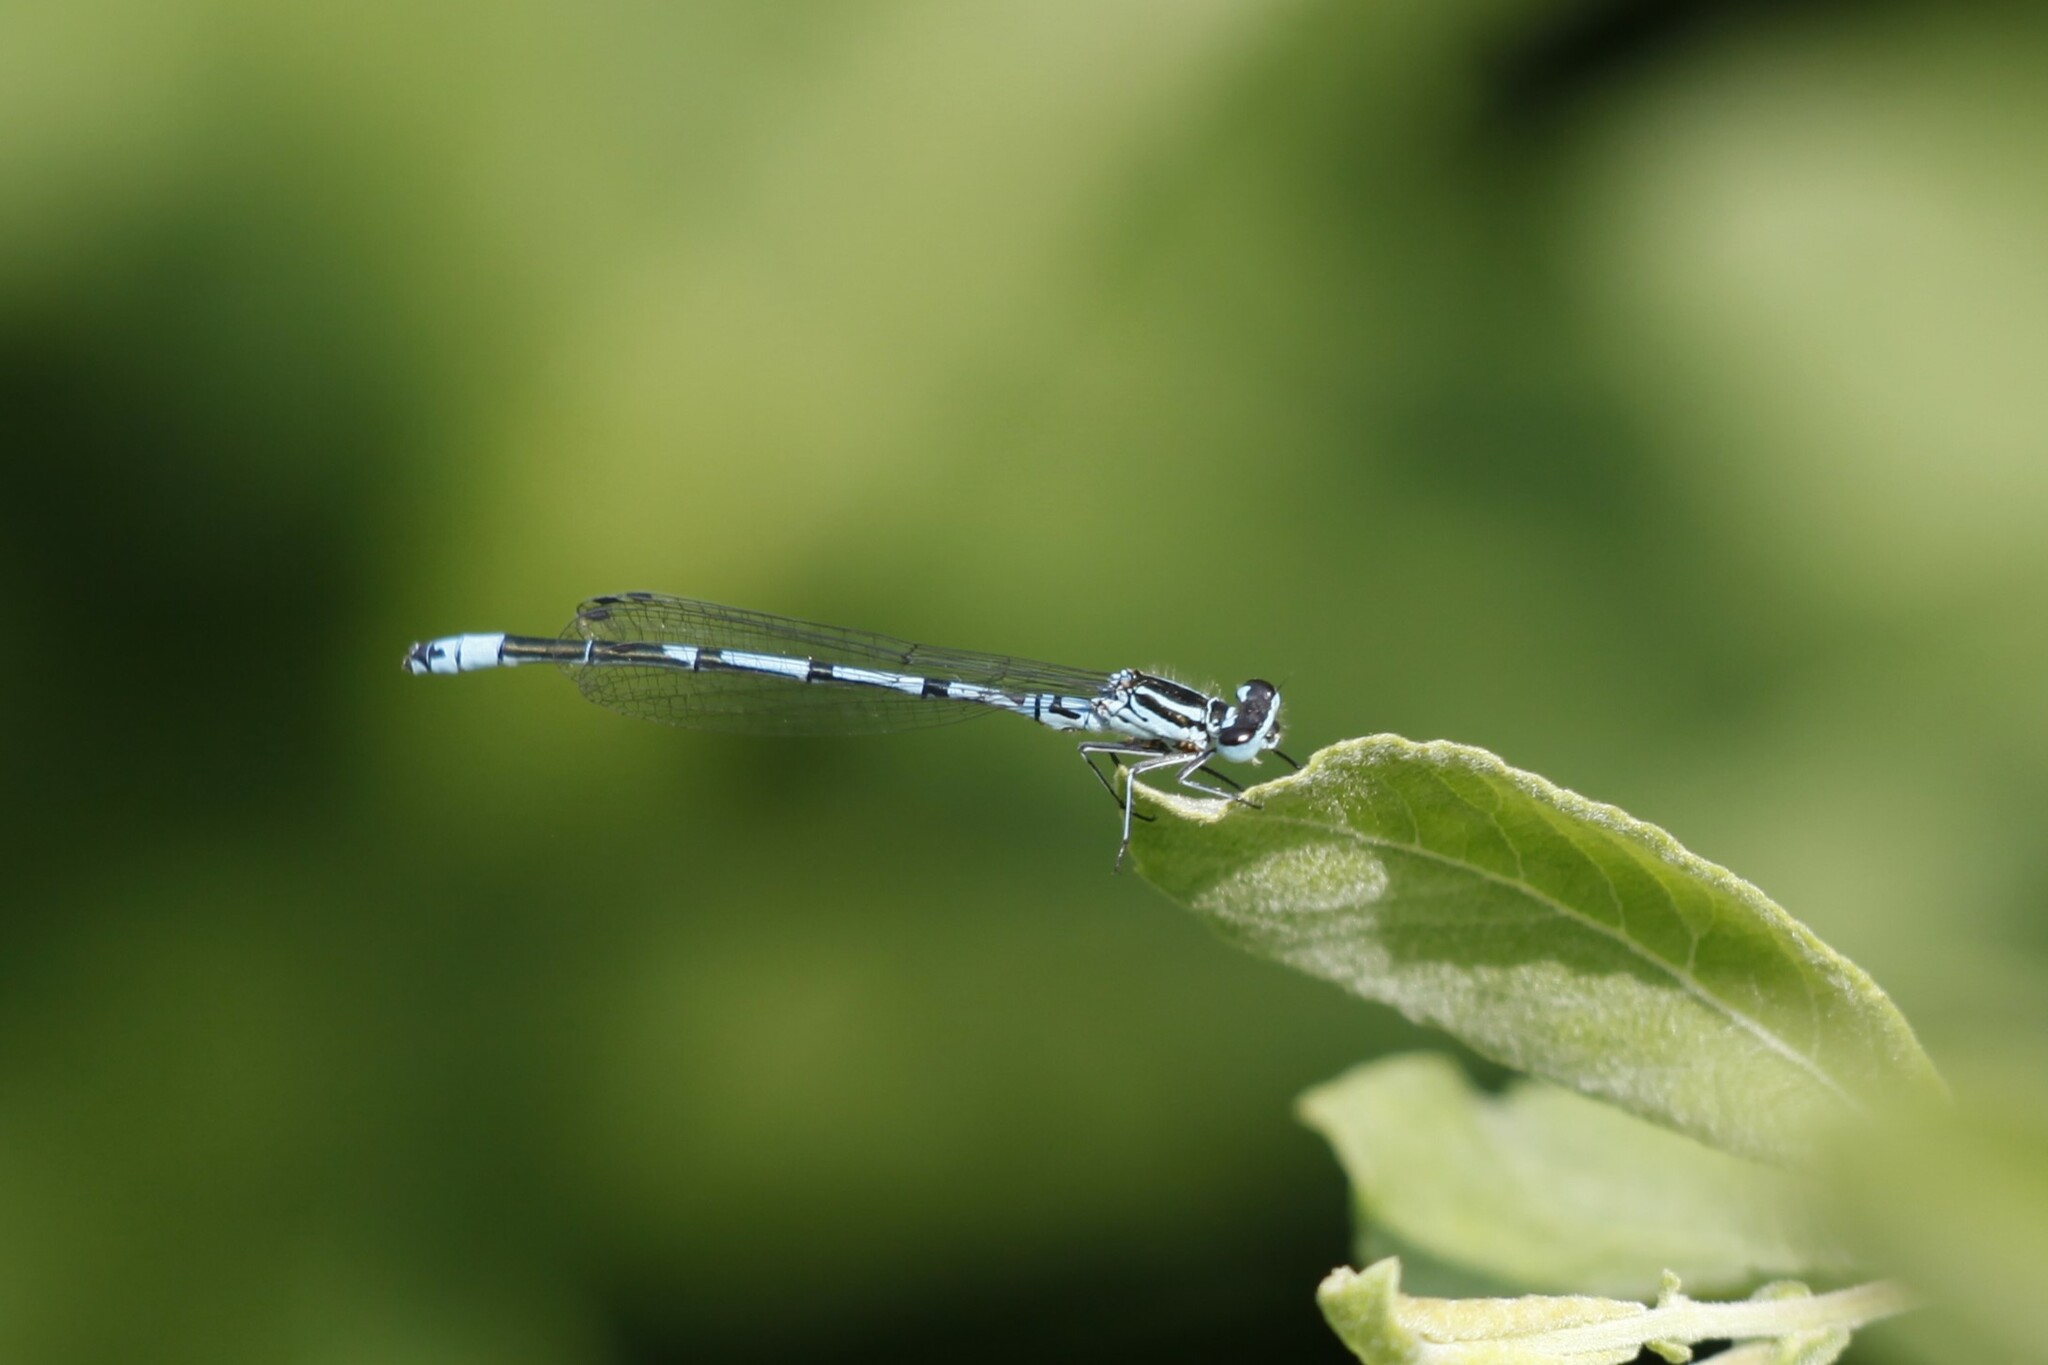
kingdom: Animalia
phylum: Arthropoda
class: Insecta
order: Odonata
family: Coenagrionidae
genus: Coenagrion
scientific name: Coenagrion puella
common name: Azure damselfly
